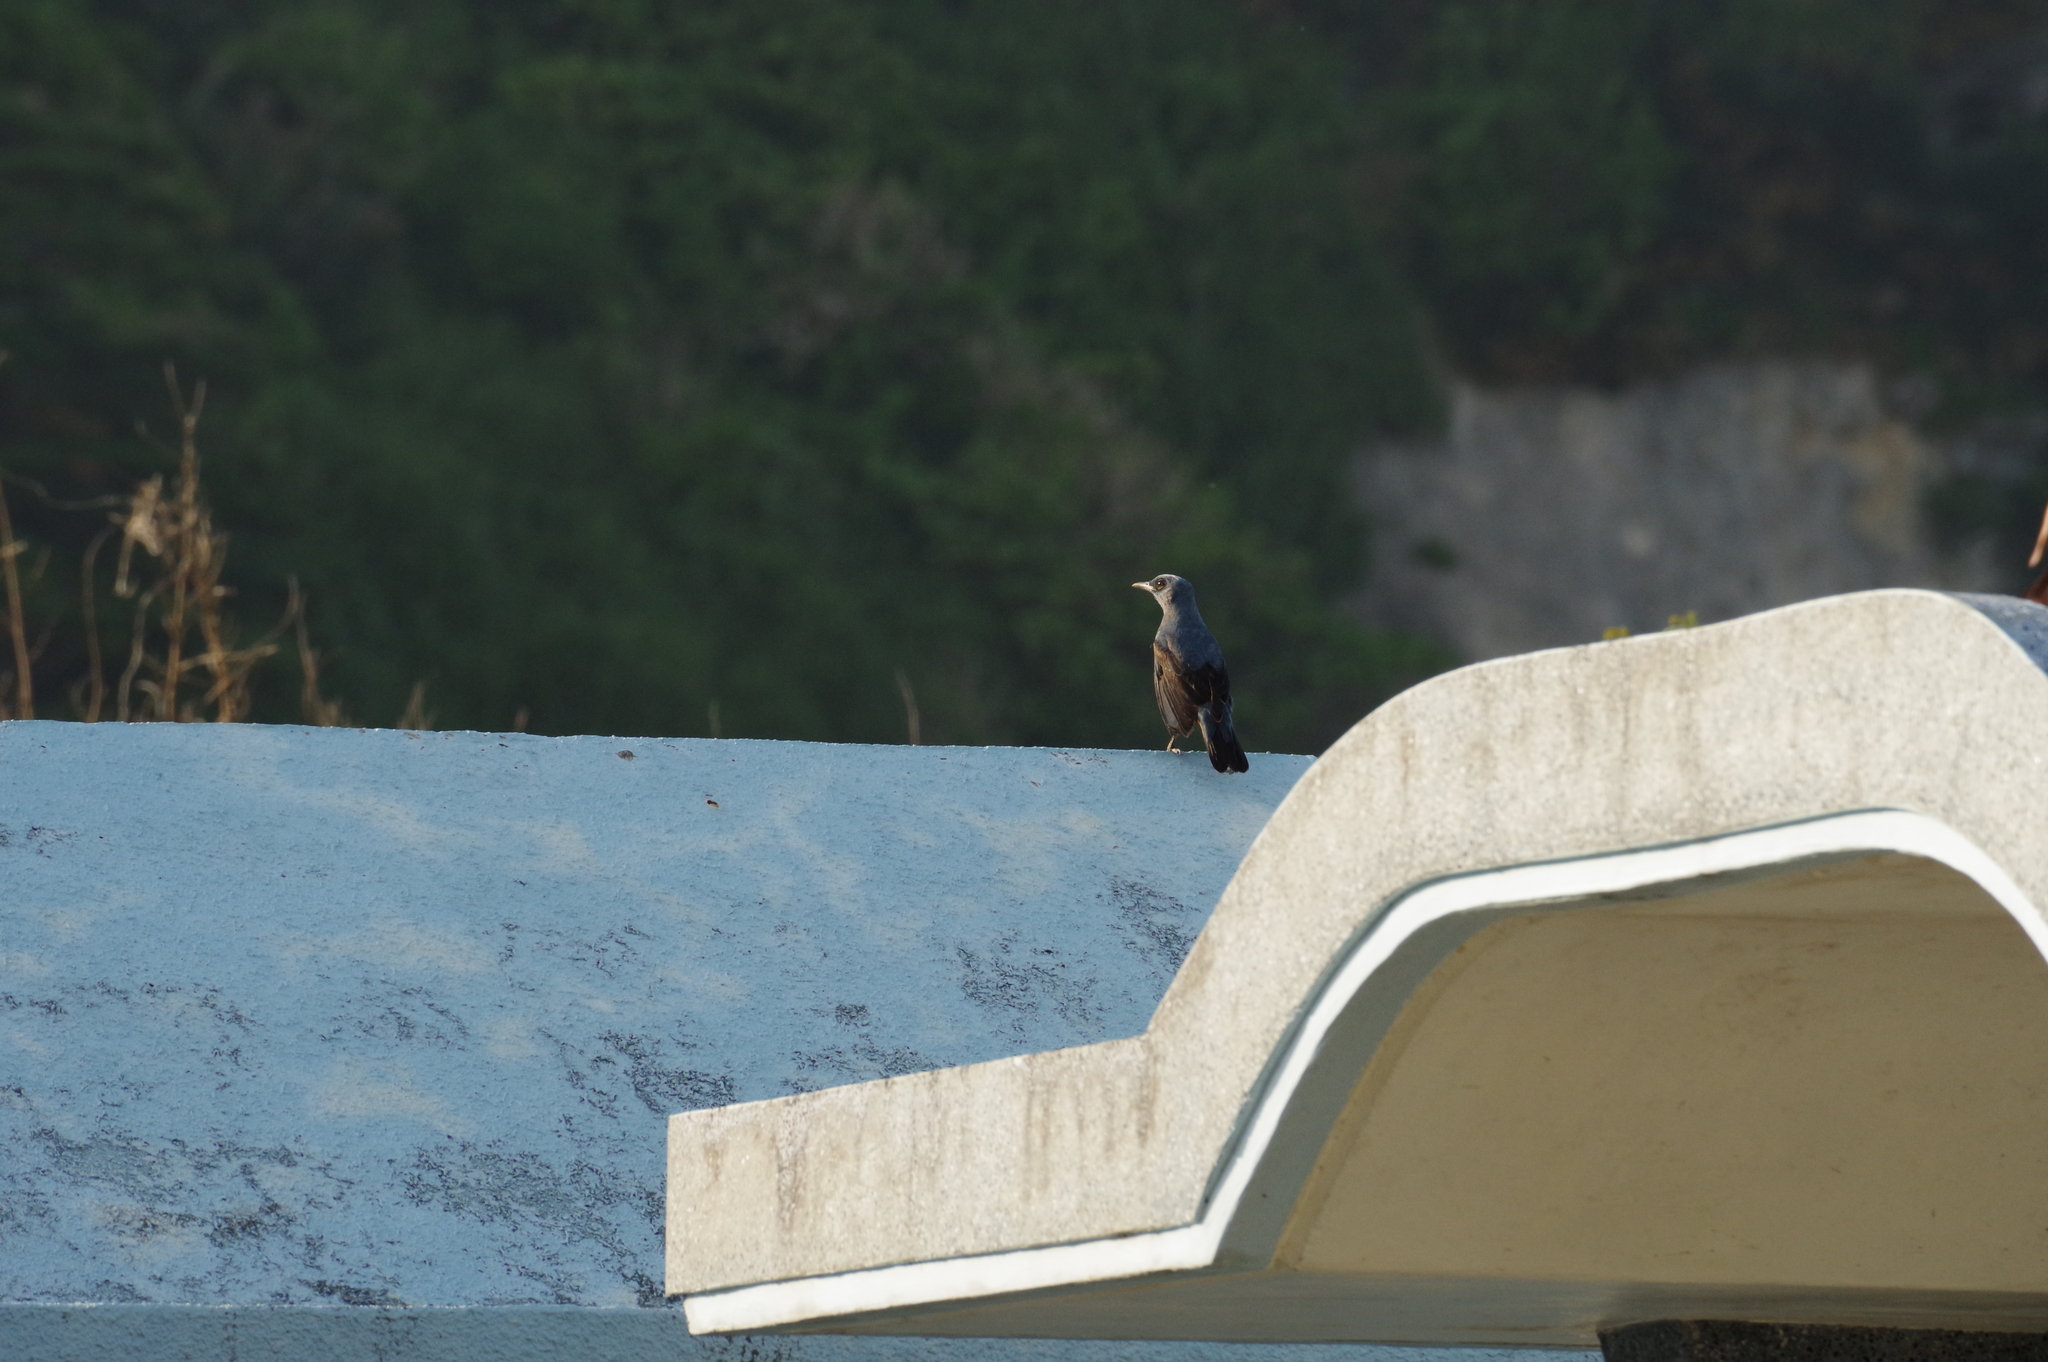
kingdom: Animalia
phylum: Chordata
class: Aves
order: Passeriformes
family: Muscicapidae
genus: Monticola
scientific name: Monticola solitarius
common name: Blue rock thrush
